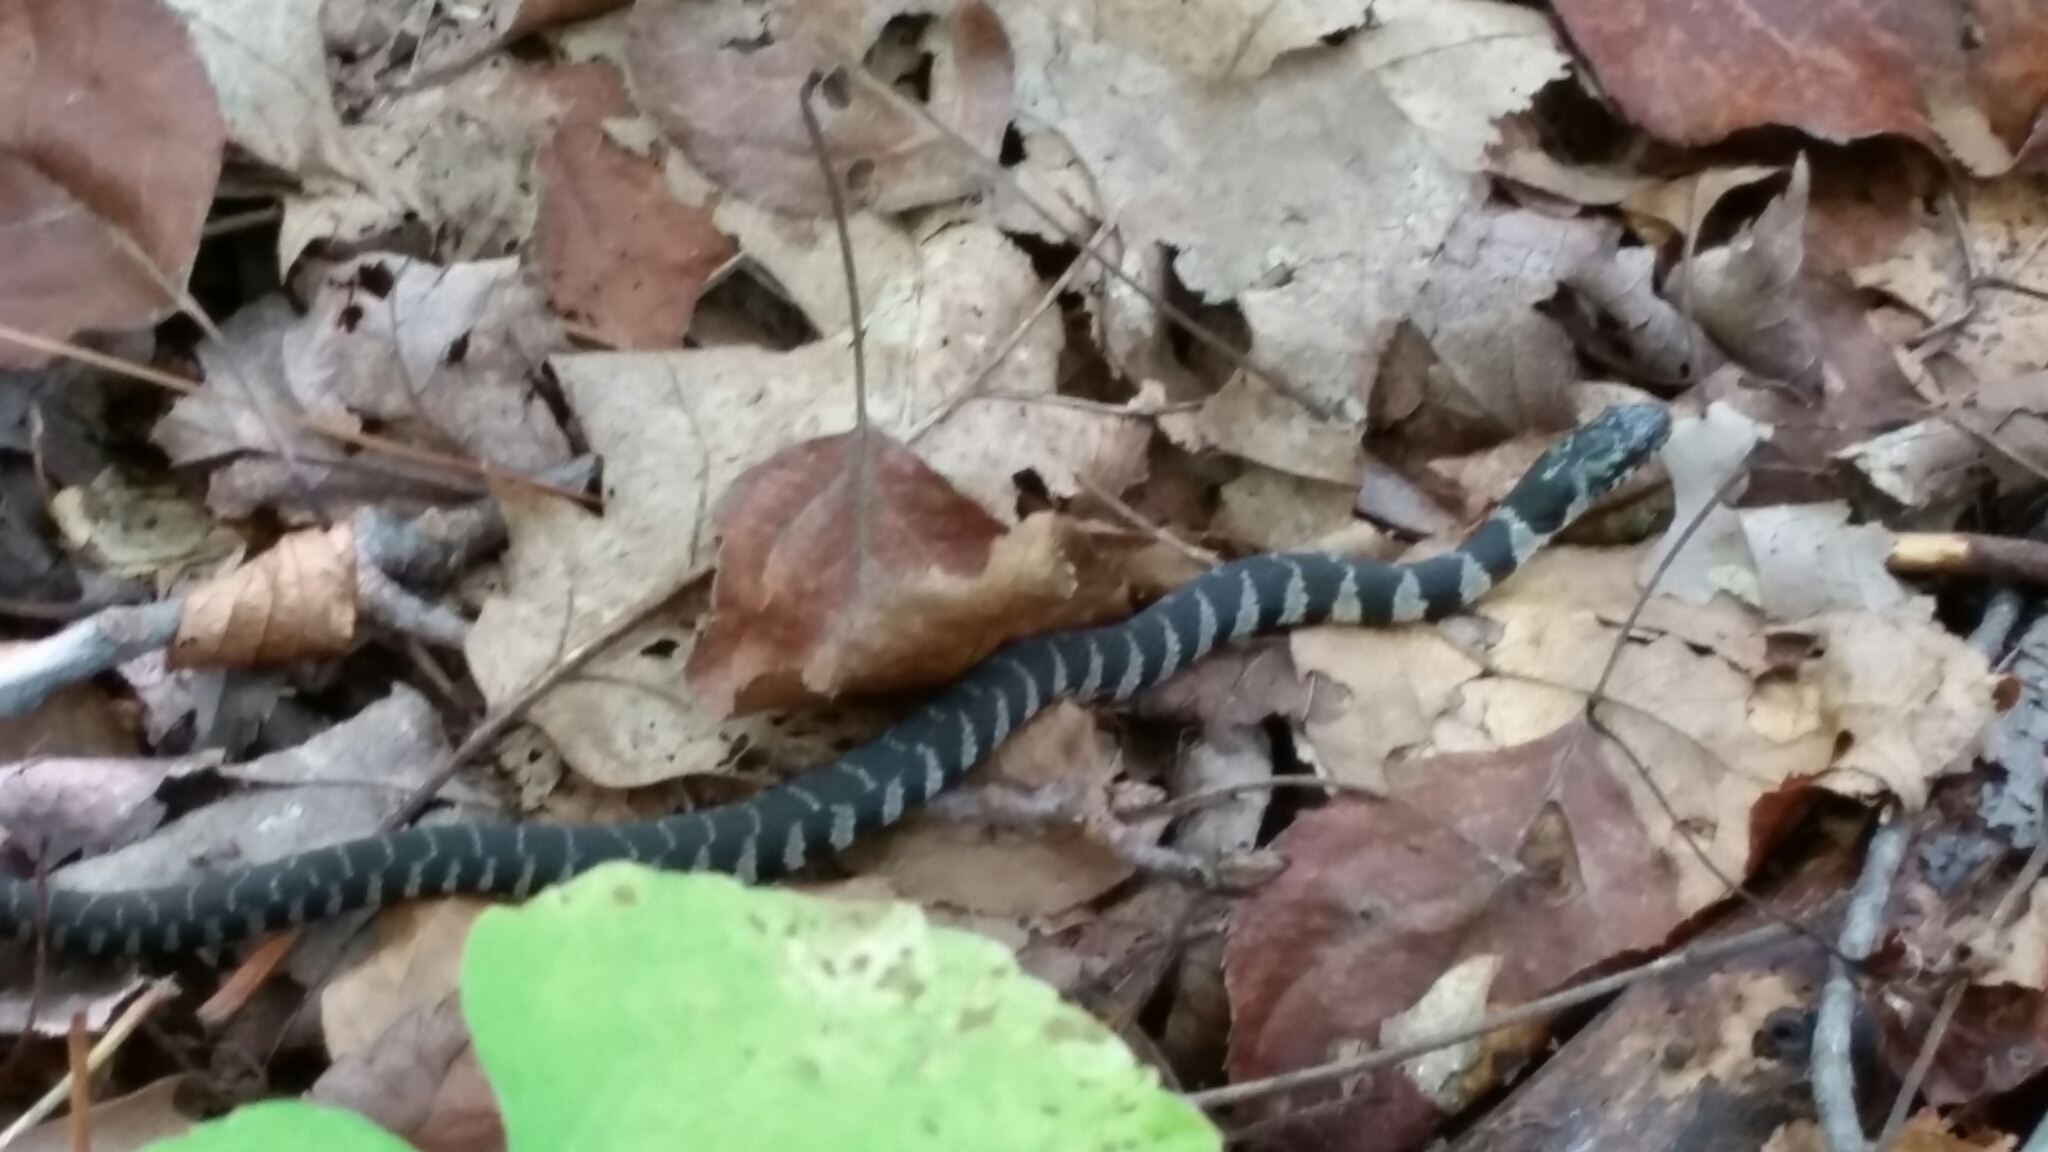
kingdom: Animalia
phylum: Chordata
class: Squamata
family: Colubridae
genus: Nerodia
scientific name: Nerodia sipedon
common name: Northern water snake
